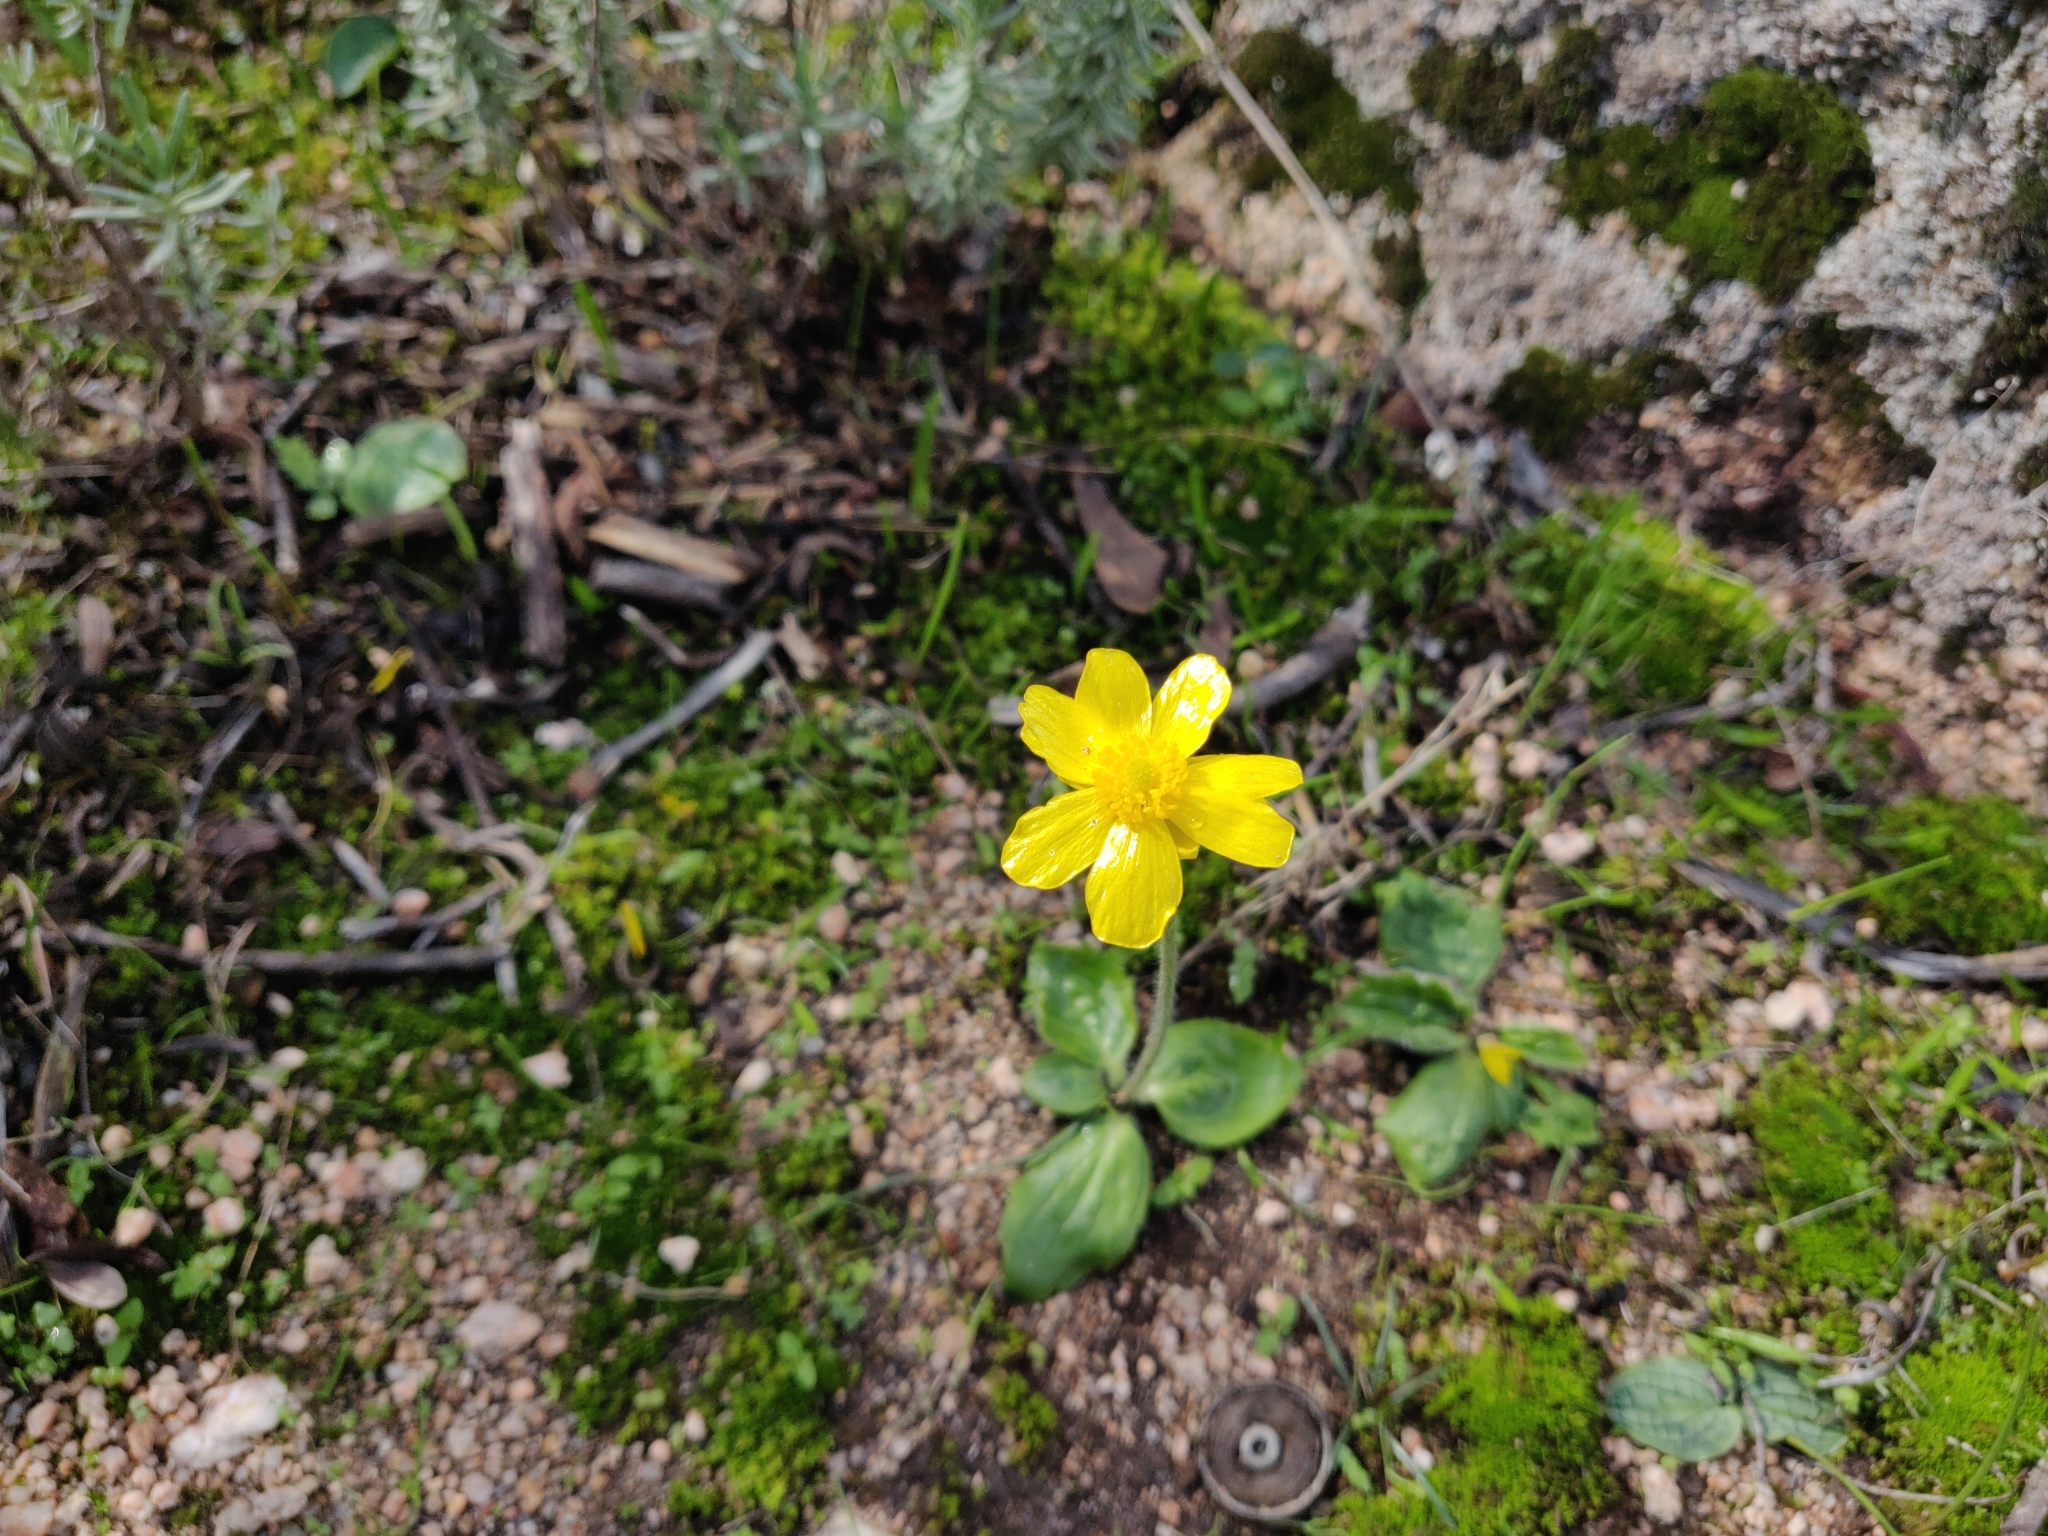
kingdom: Plantae
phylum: Tracheophyta
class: Magnoliopsida
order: Ranunculales
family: Ranunculaceae
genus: Ranunculus
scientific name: Ranunculus bullatus
